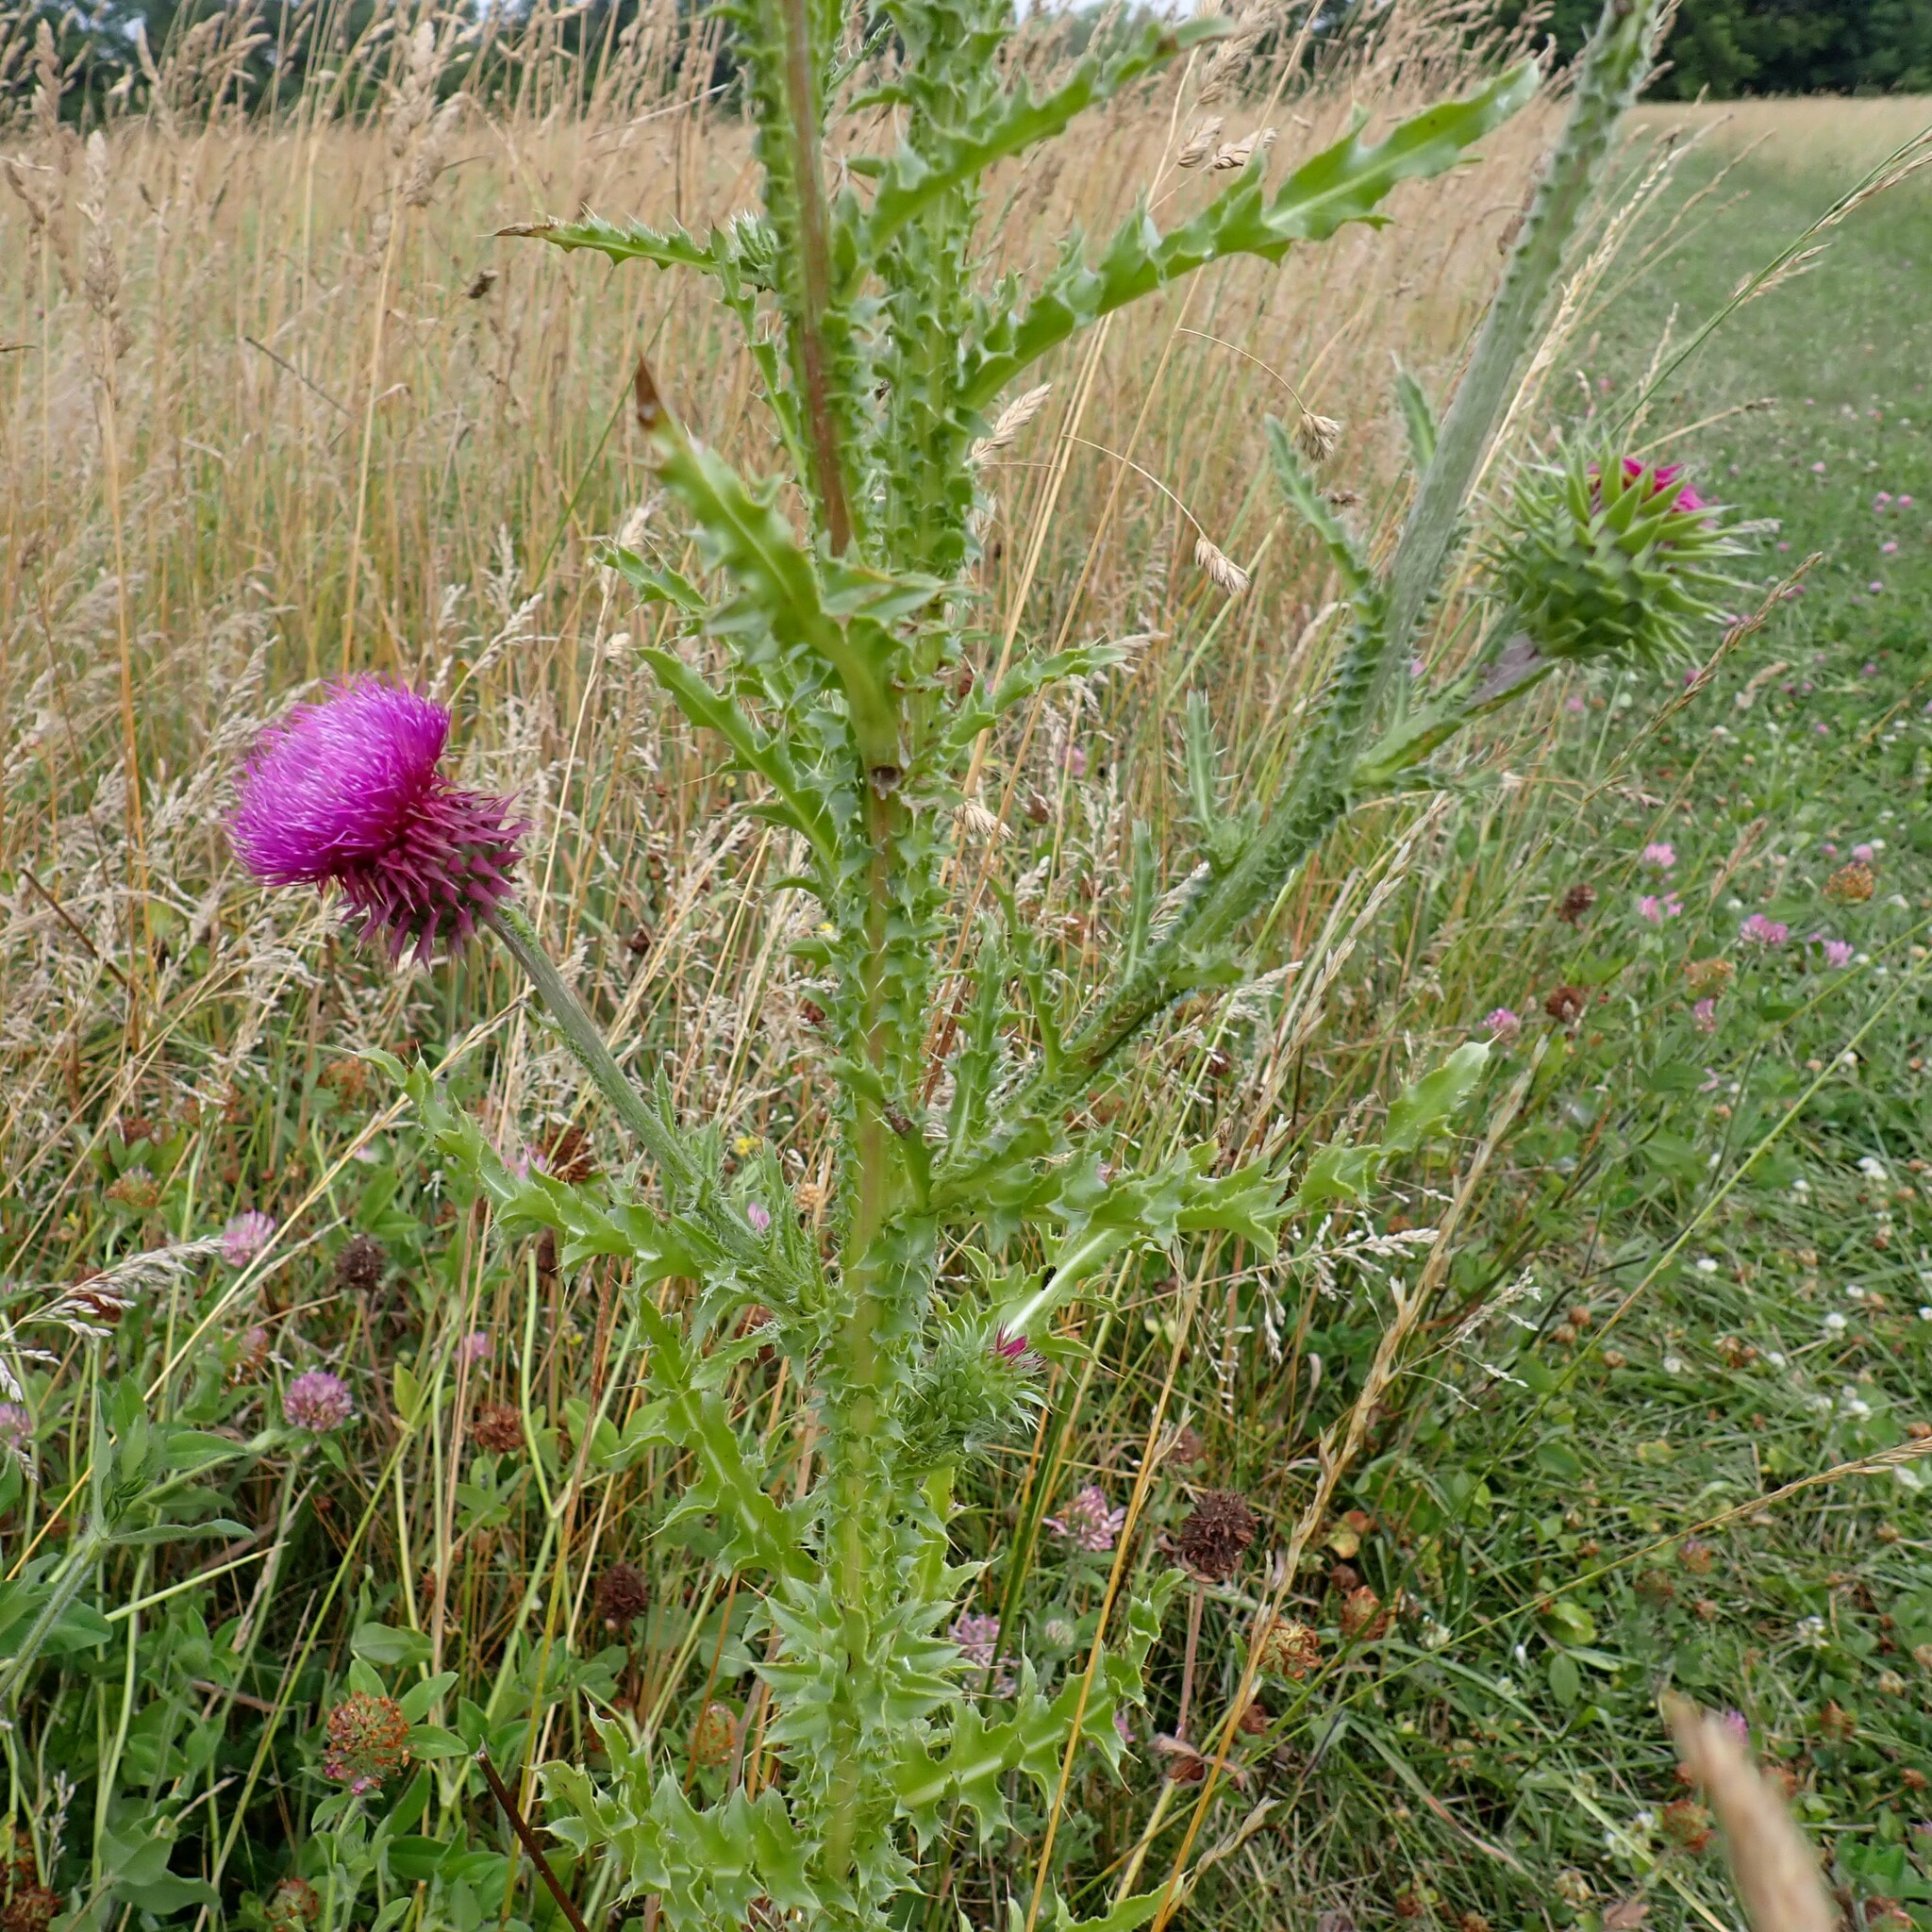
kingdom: Plantae
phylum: Tracheophyta
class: Magnoliopsida
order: Asterales
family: Asteraceae
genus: Carduus
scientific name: Carduus nutans
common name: Musk thistle
